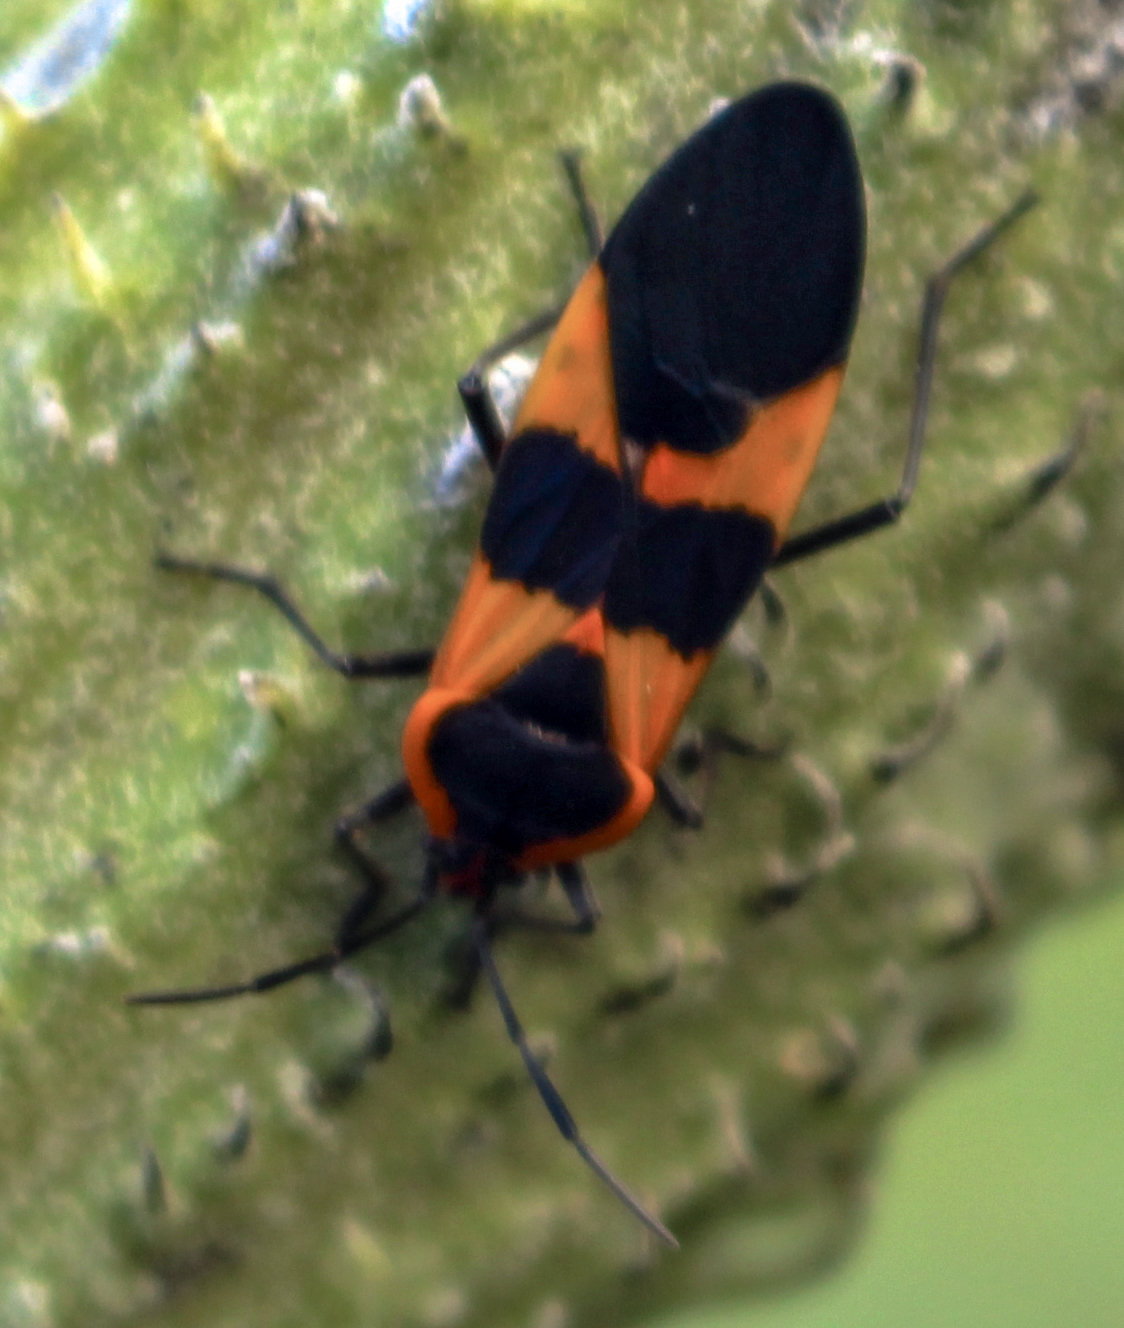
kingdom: Animalia
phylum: Arthropoda
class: Insecta
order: Hemiptera
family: Lygaeidae
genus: Oncopeltus
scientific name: Oncopeltus fasciatus
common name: Large milkweed bug
